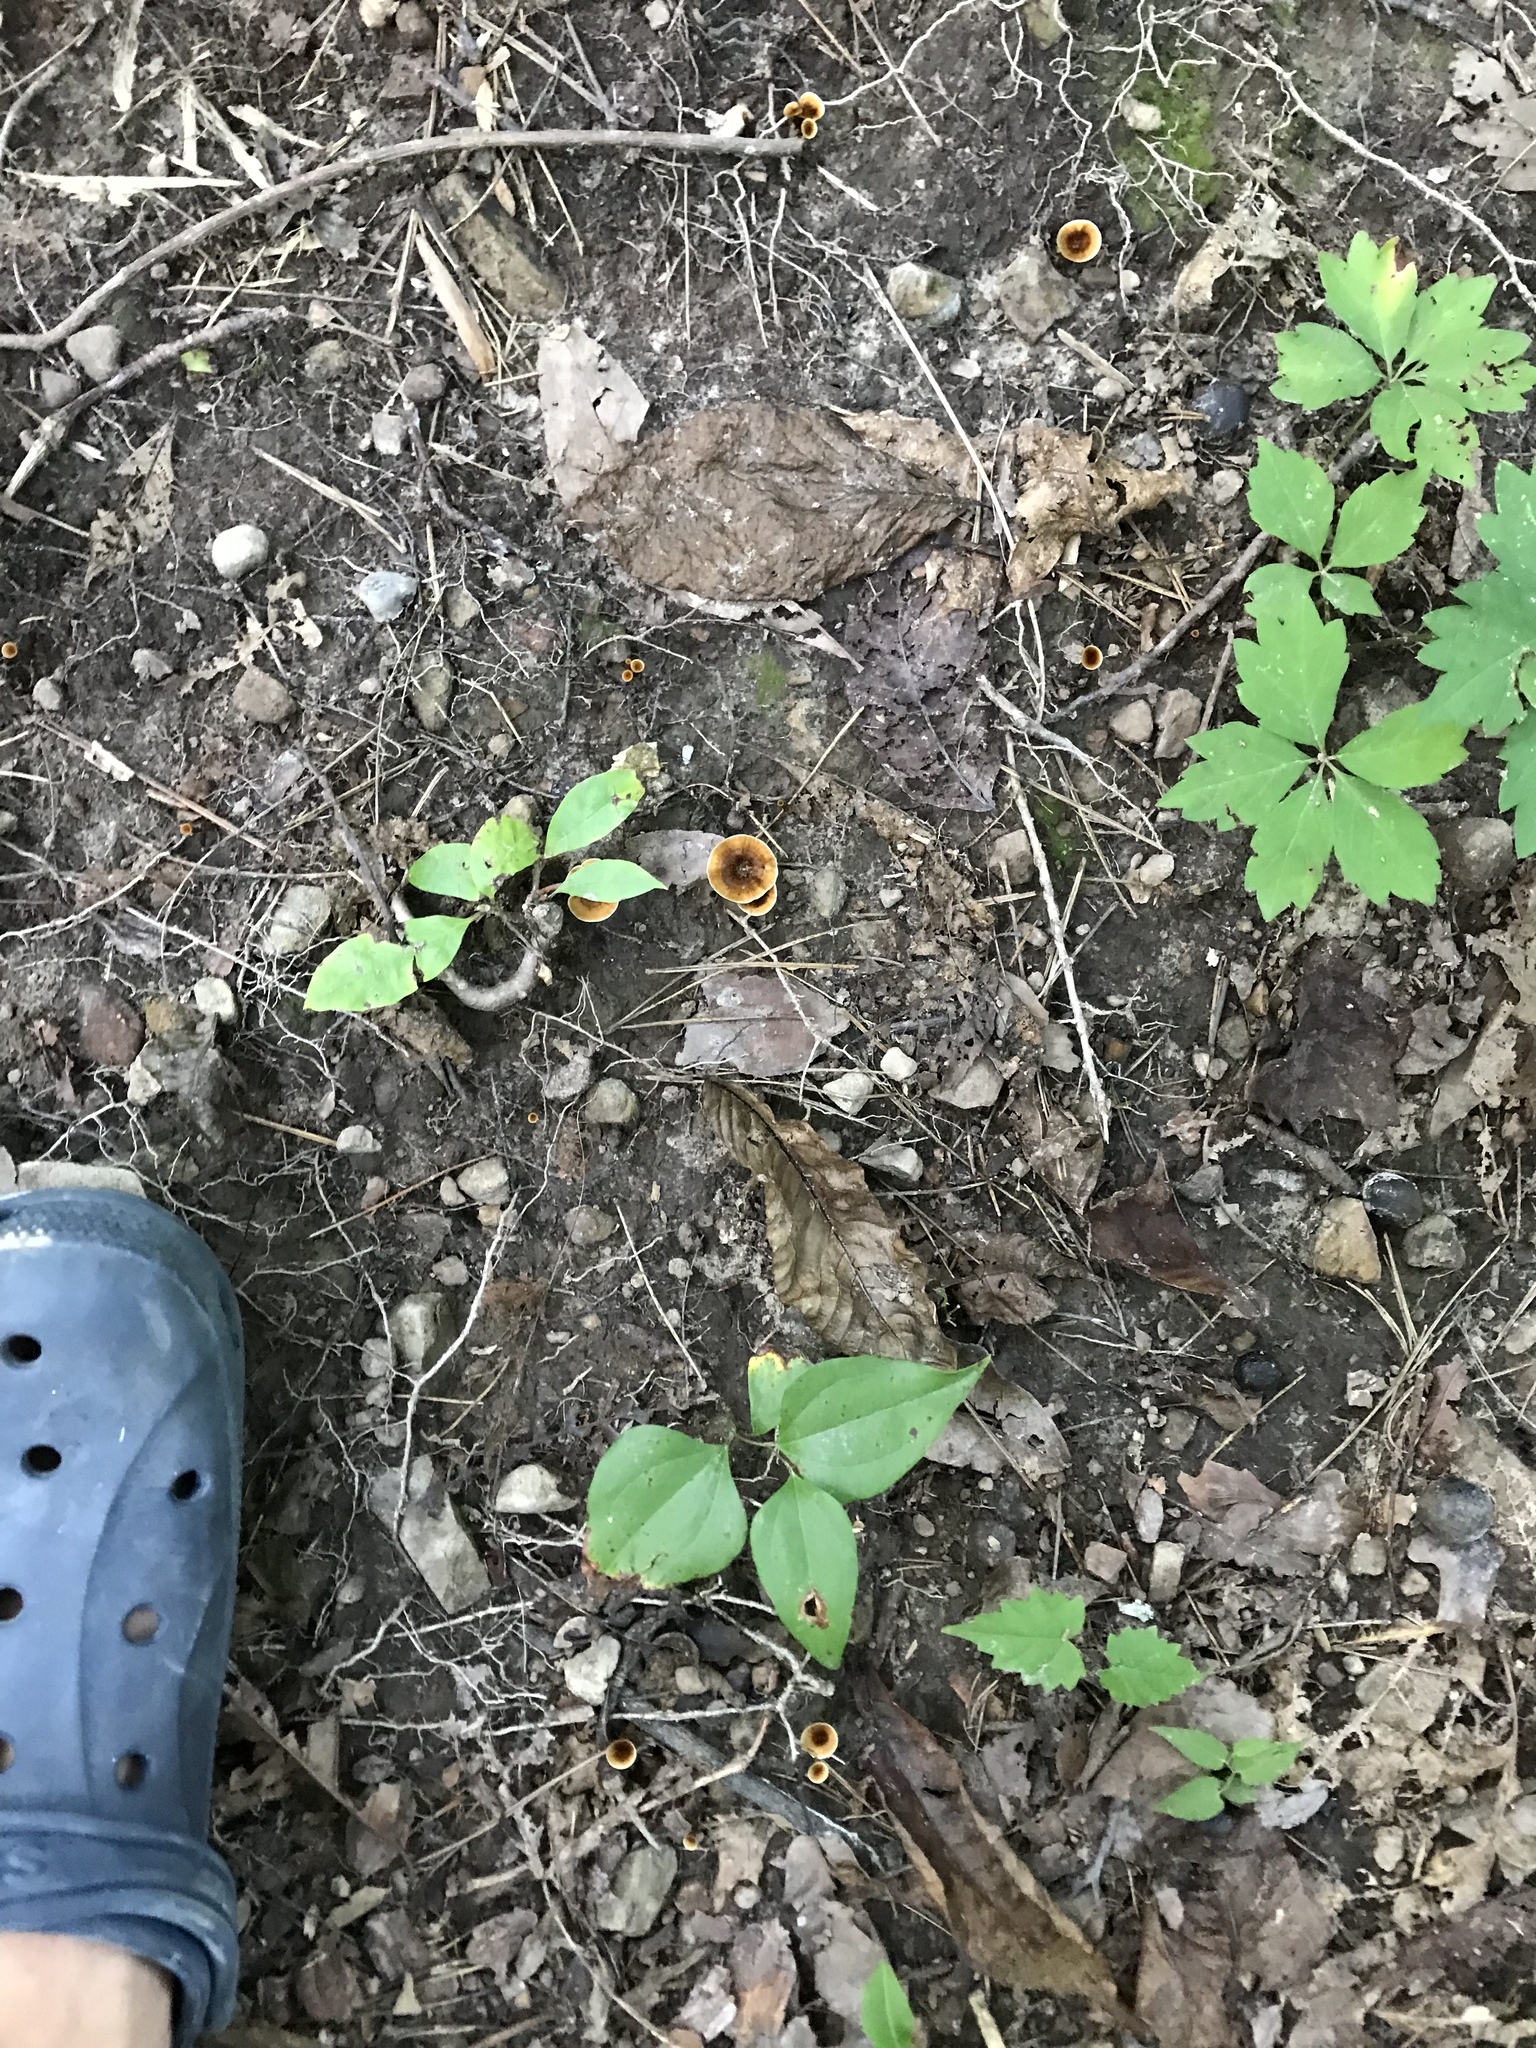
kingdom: Fungi
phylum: Basidiomycota
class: Agaricomycetes
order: Hymenochaetales
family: Hymenochaetaceae
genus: Coltricia
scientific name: Coltricia cinnamomea
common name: Shiny cinnamon polypore
